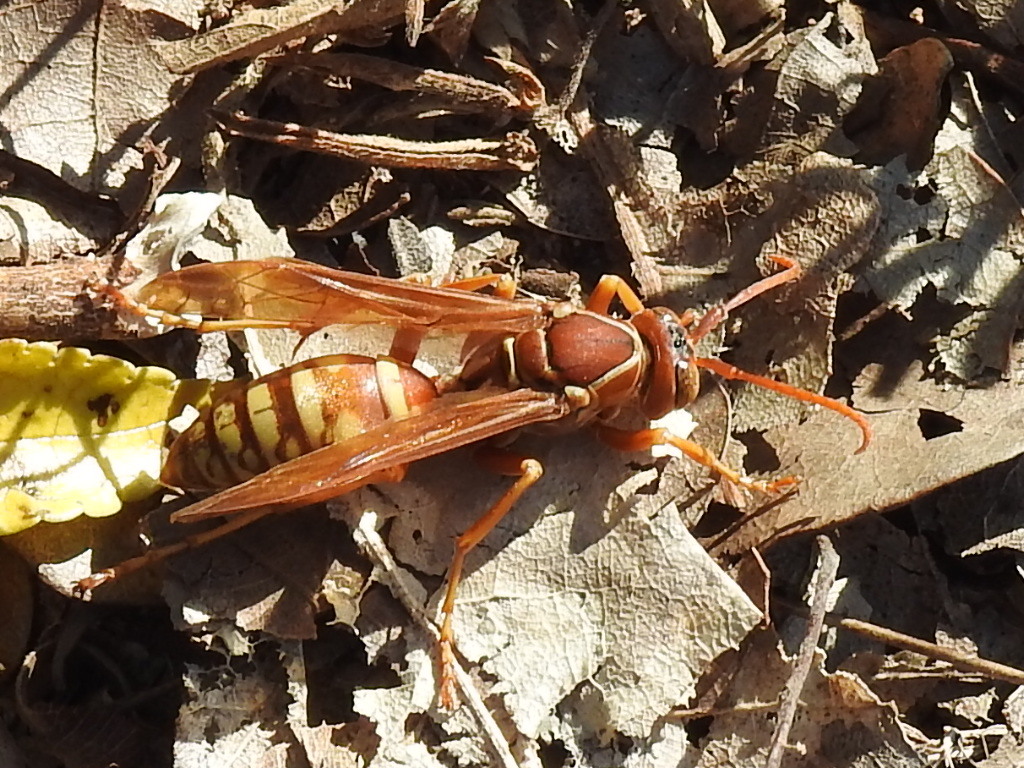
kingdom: Animalia
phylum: Arthropoda
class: Insecta
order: Hymenoptera
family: Eumenidae
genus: Polistes
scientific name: Polistes apachus
